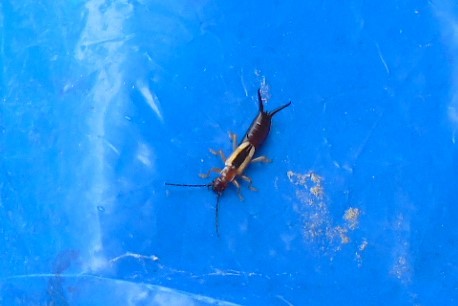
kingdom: Animalia
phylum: Arthropoda
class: Insecta
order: Dermaptera
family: Forficulidae
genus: Doru
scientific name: Doru taeniatum
